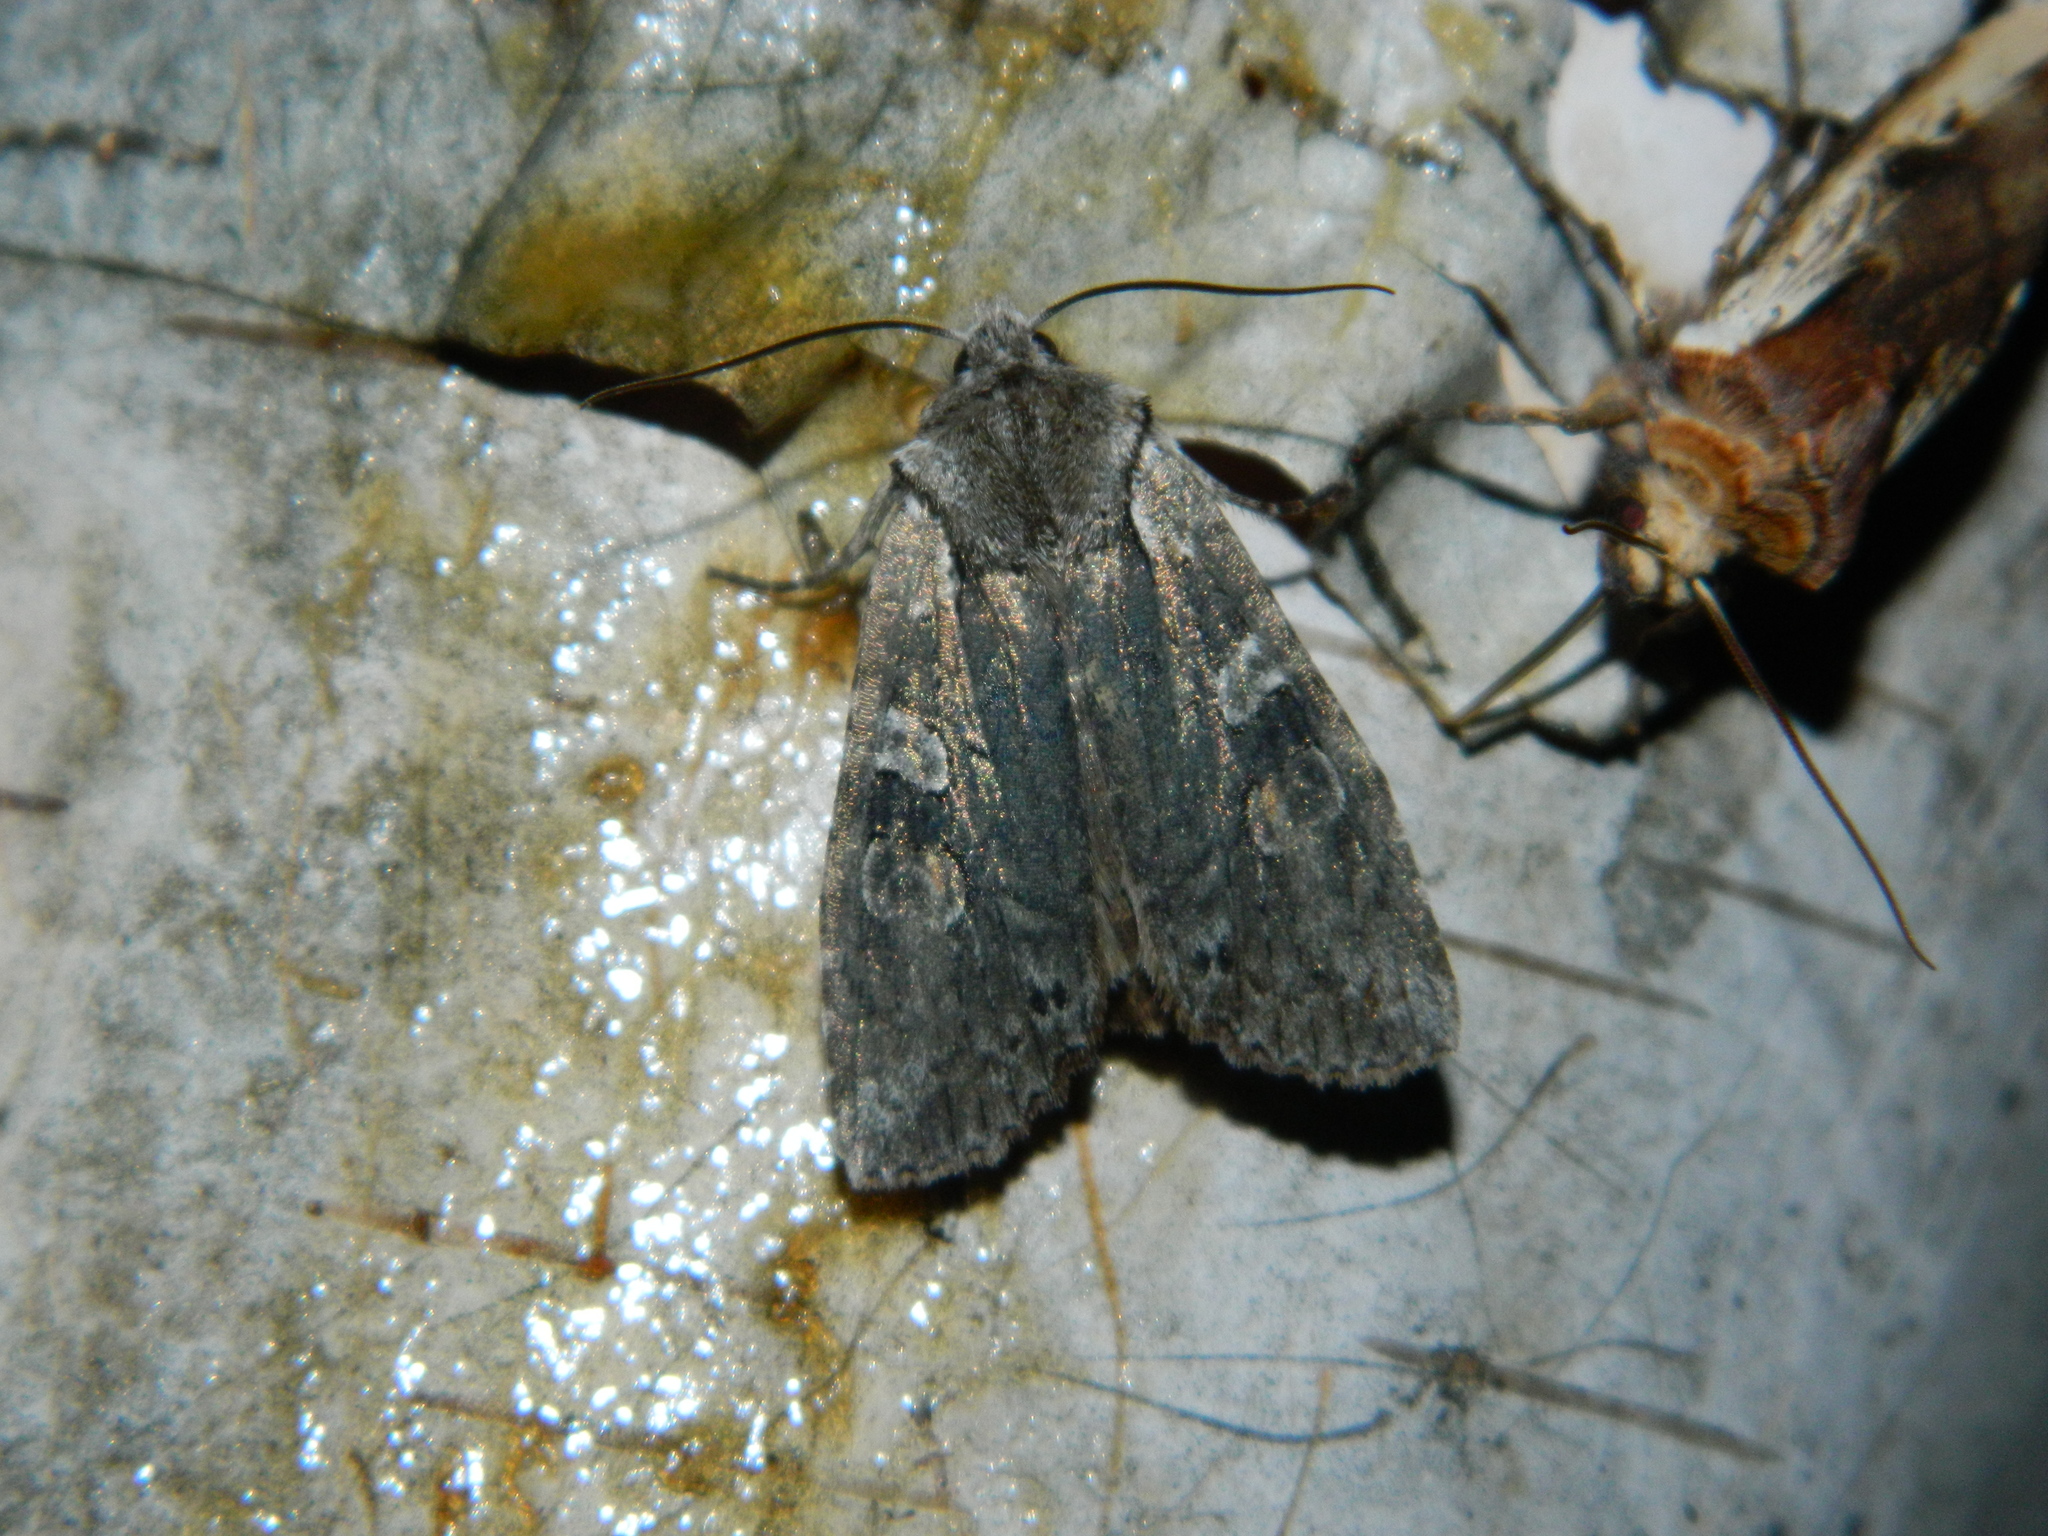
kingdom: Animalia
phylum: Arthropoda
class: Insecta
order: Lepidoptera
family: Noctuidae
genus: Lithophane
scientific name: Lithophane baileyi
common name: Bailey's pinion moth
